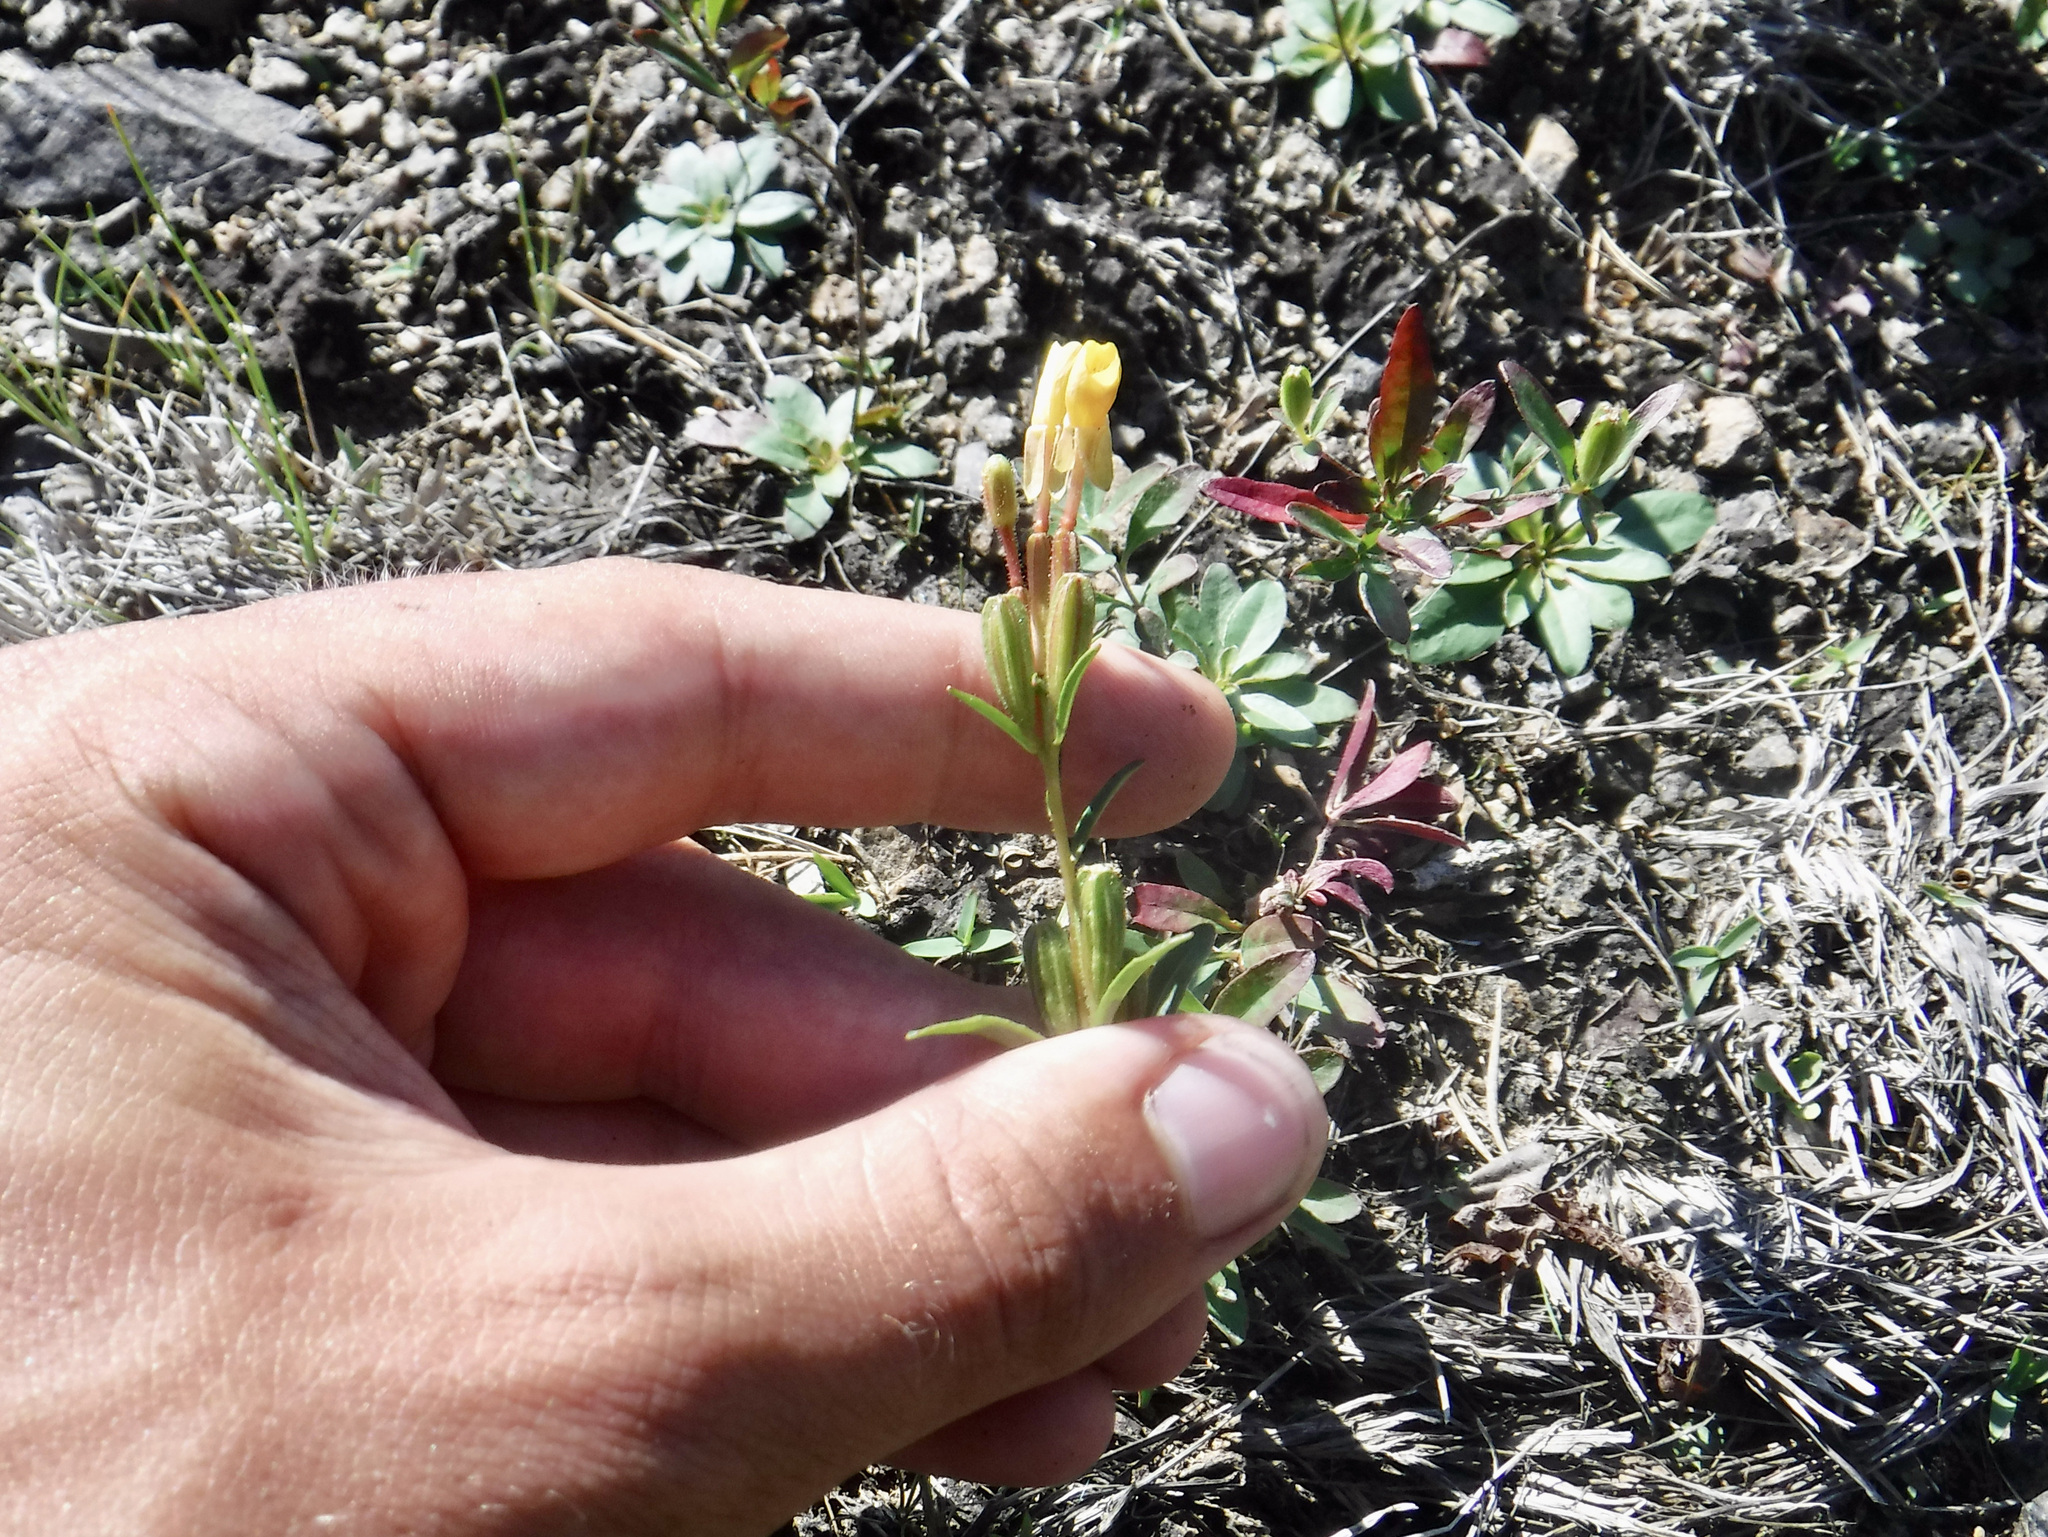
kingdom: Plantae
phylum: Tracheophyta
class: Magnoliopsida
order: Myrtales
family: Onagraceae
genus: Oenothera
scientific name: Oenothera perennis
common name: Small sundrops
